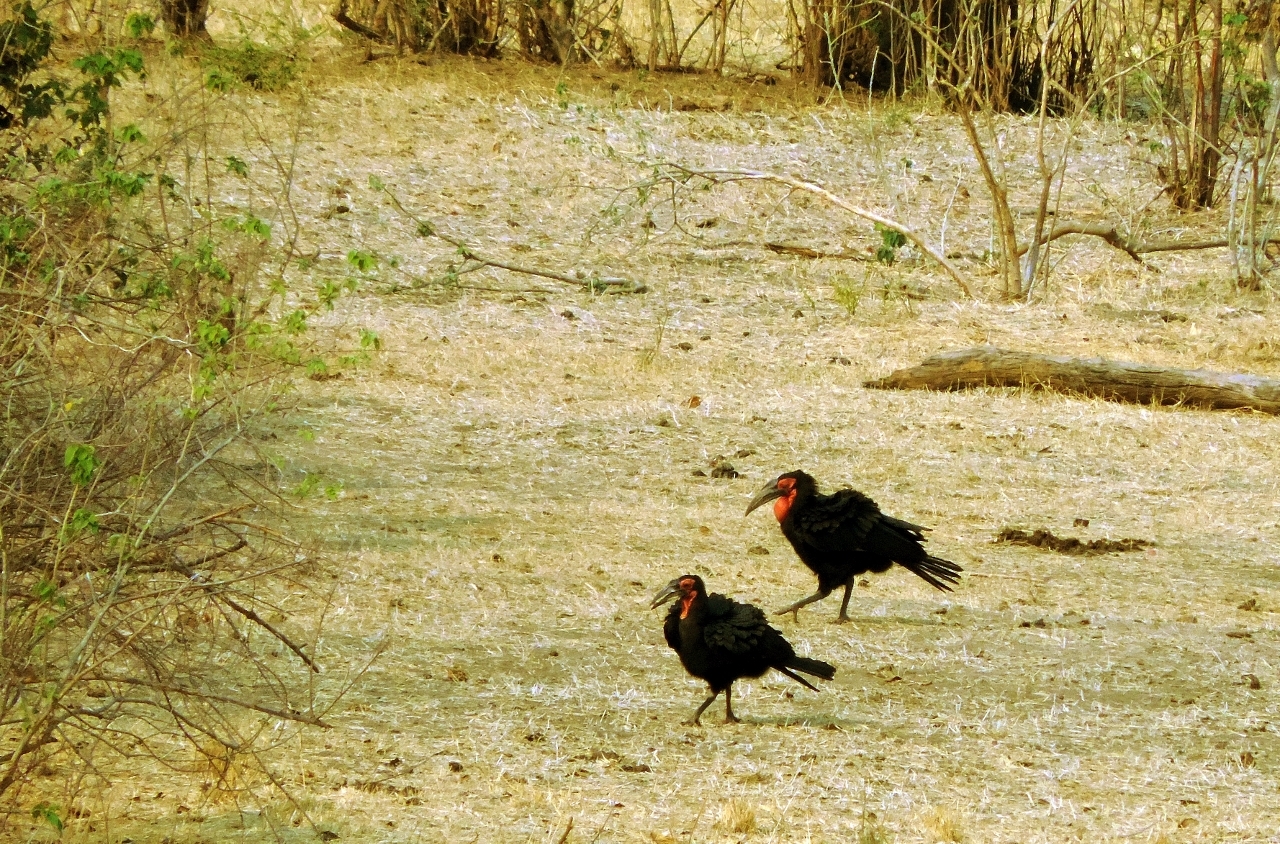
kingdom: Animalia
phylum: Chordata
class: Aves
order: Bucerotiformes
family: Bucorvidae
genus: Bucorvus
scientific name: Bucorvus leadbeateri
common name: Southern ground-hornbill
